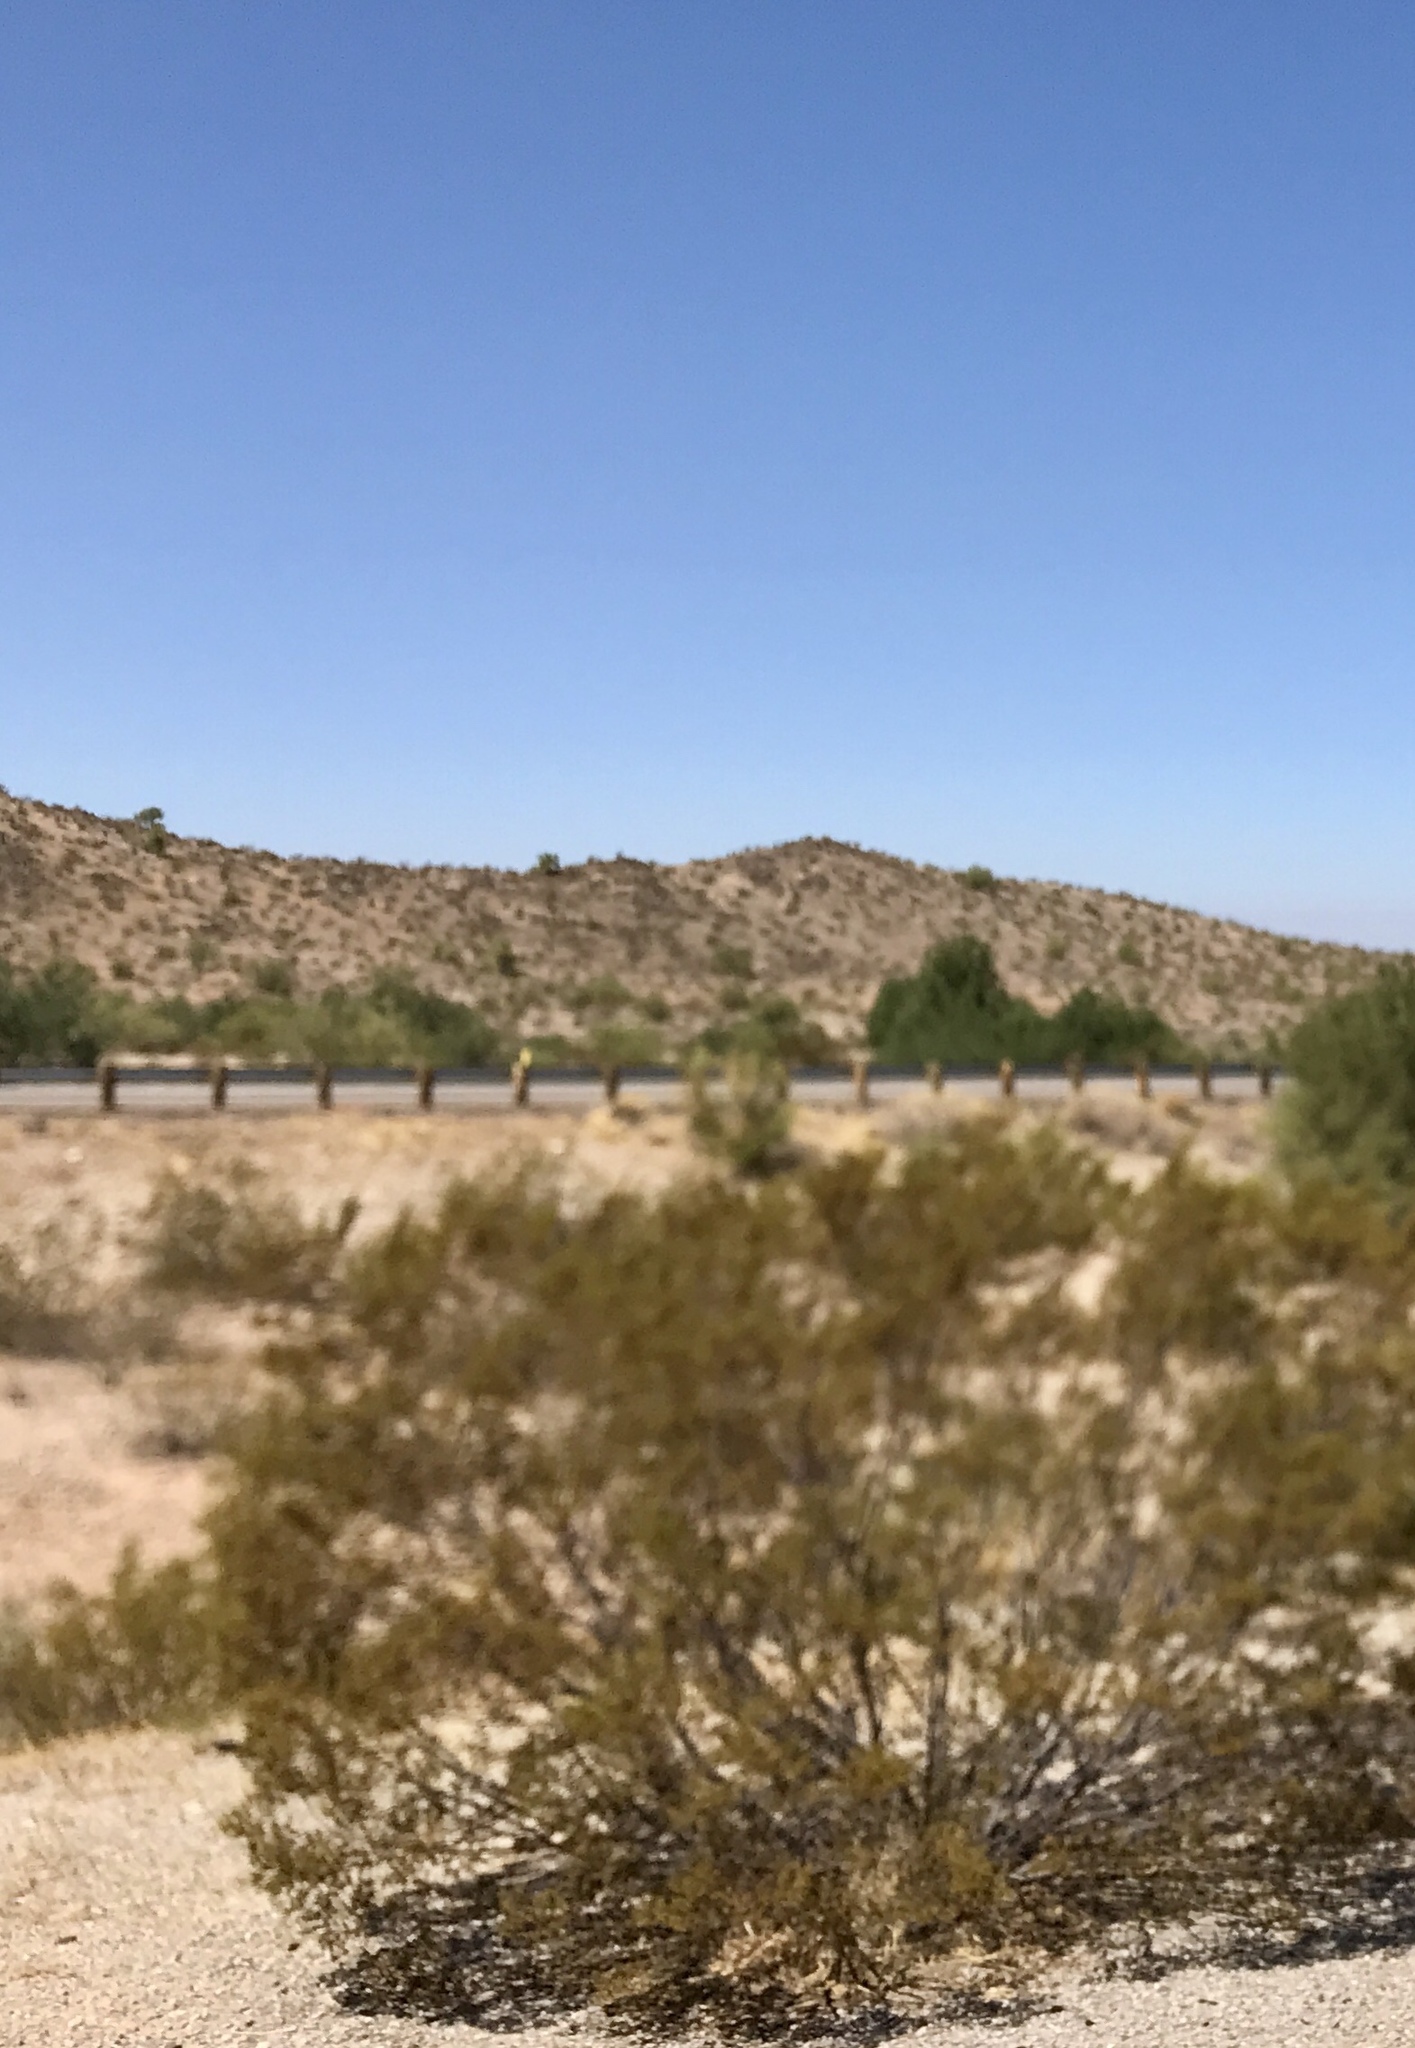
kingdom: Plantae
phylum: Tracheophyta
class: Magnoliopsida
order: Zygophyllales
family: Zygophyllaceae
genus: Larrea
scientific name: Larrea tridentata
